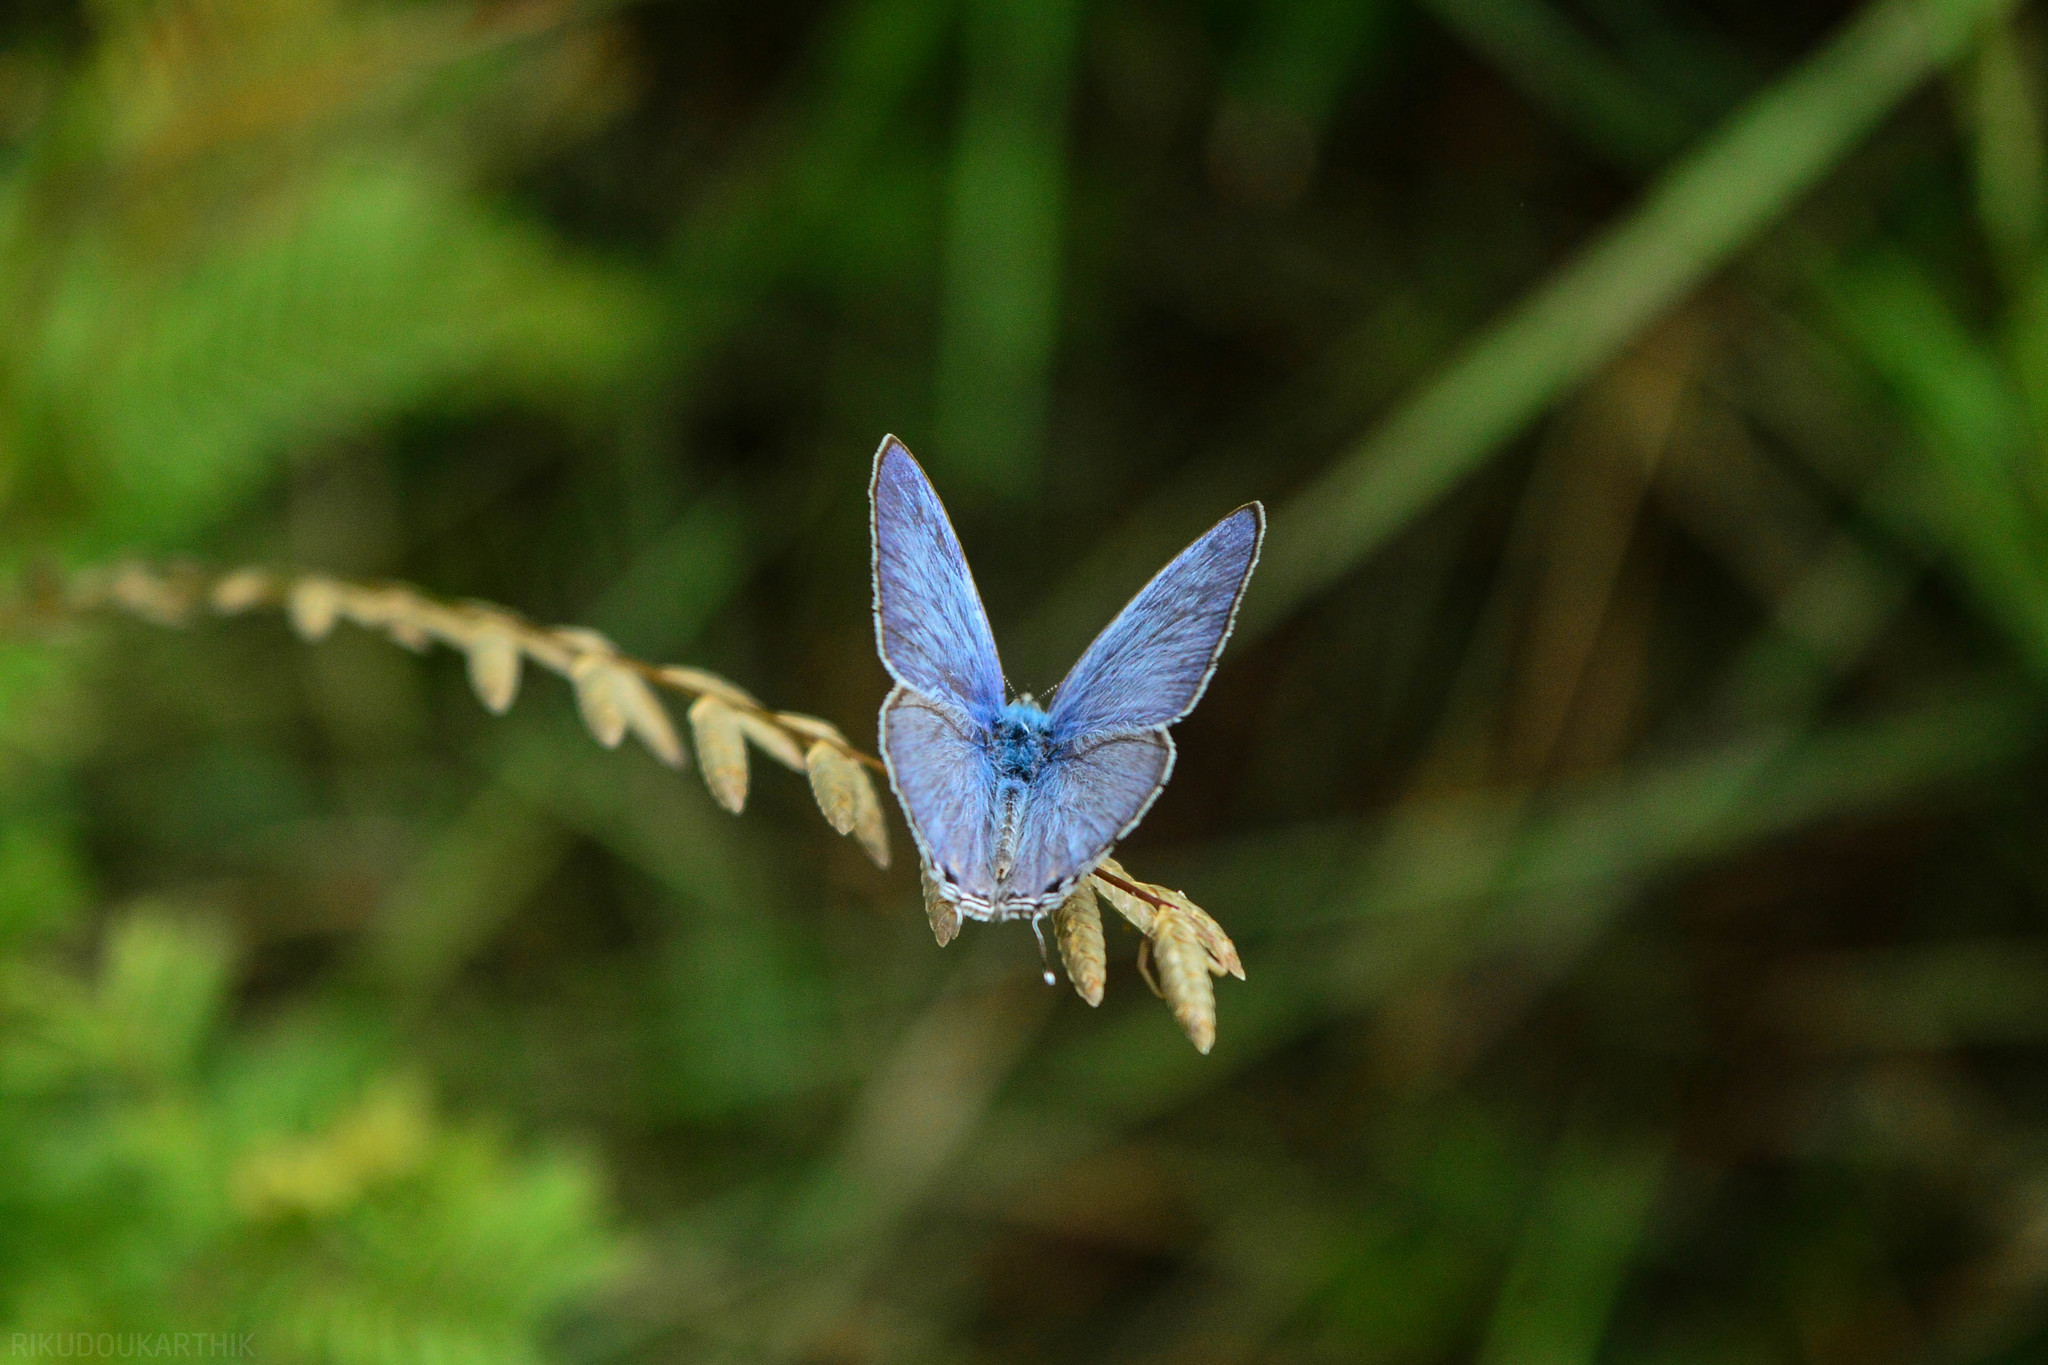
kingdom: Animalia
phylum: Arthropoda
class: Insecta
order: Lepidoptera
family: Lycaenidae
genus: Catochrysops
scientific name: Catochrysops strabo
